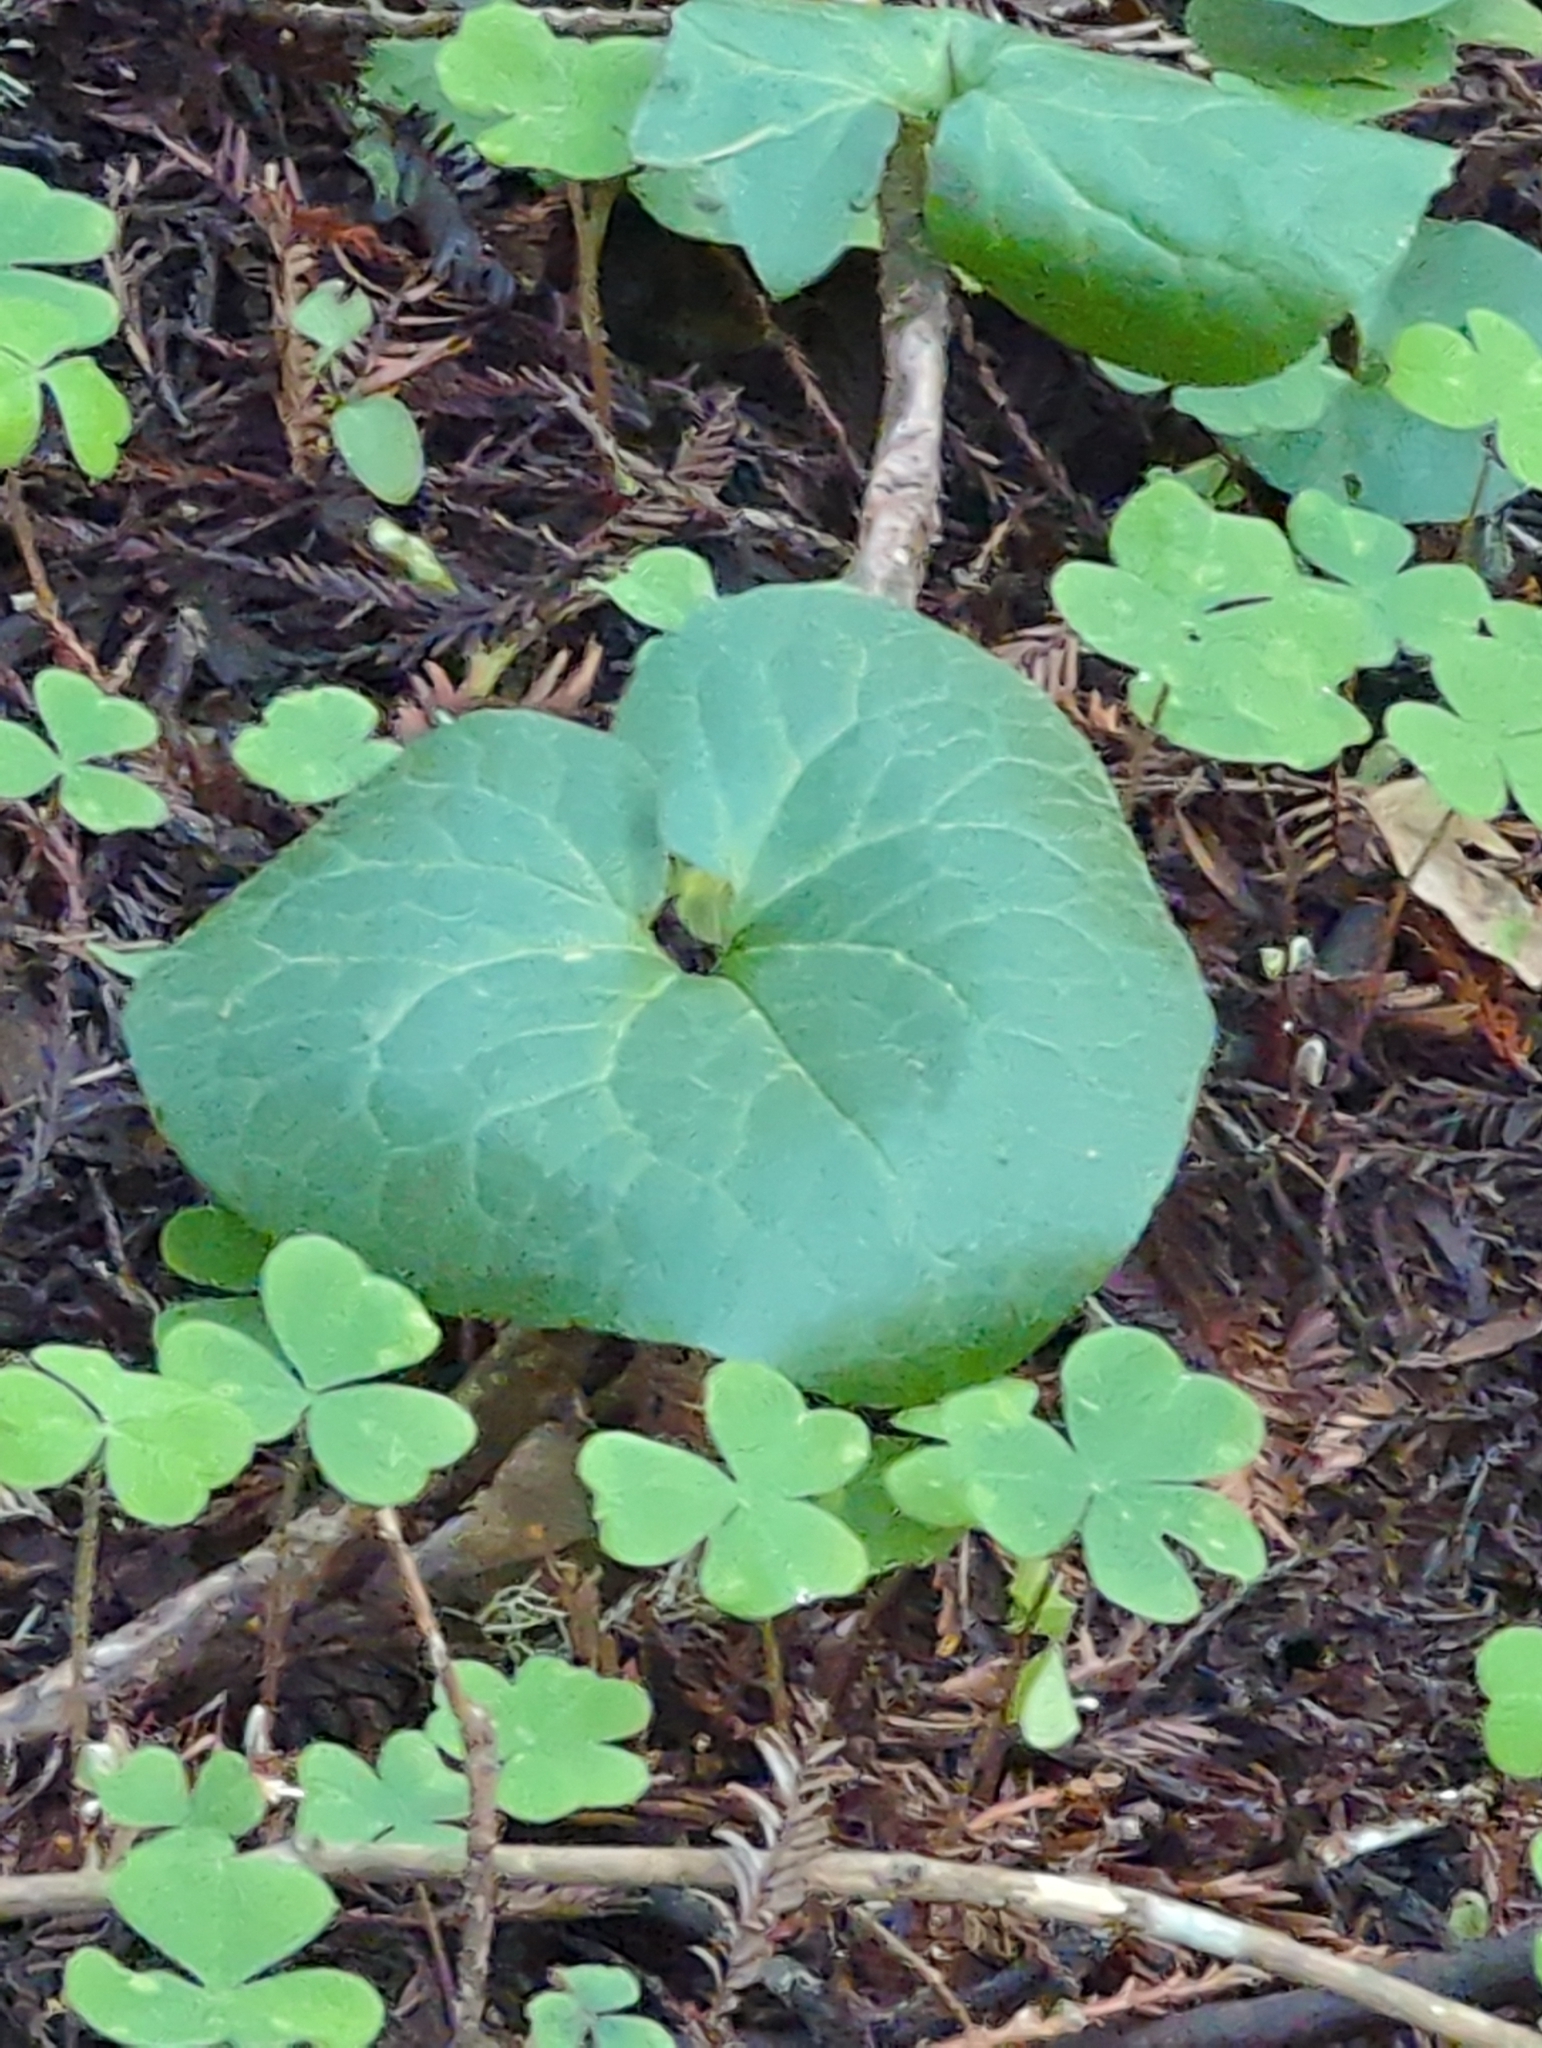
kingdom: Plantae
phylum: Tracheophyta
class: Magnoliopsida
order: Piperales
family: Aristolochiaceae
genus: Asarum
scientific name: Asarum caudatum
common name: Wild ginger
